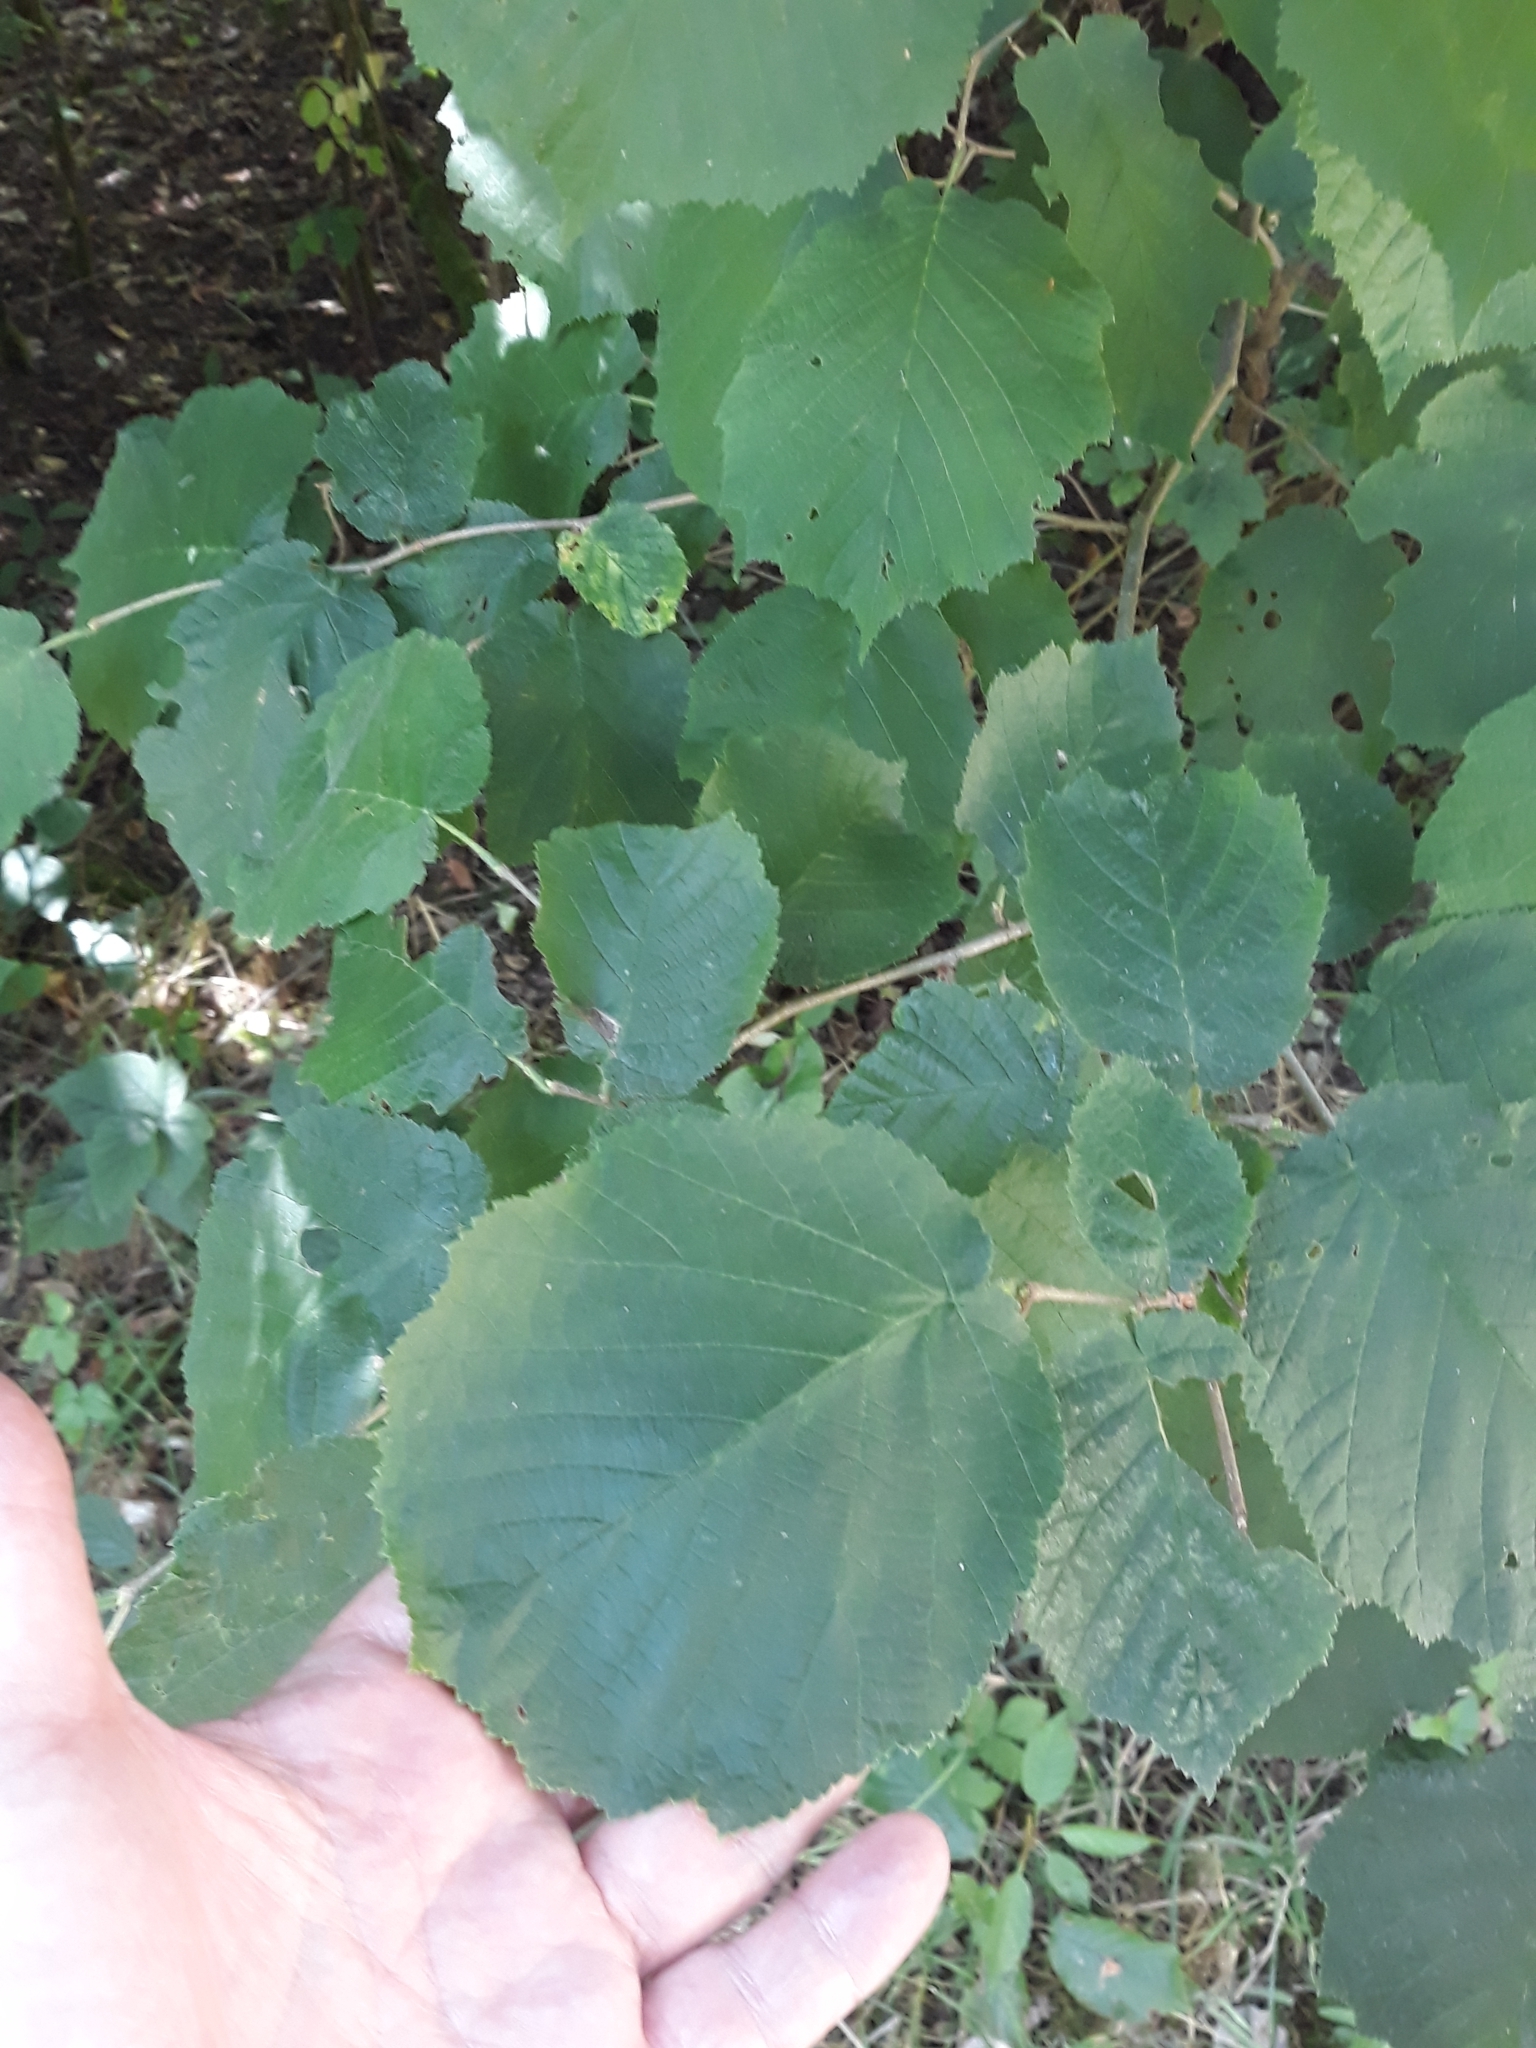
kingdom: Plantae
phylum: Tracheophyta
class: Magnoliopsida
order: Fagales
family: Betulaceae
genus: Corylus
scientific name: Corylus avellana
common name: European hazel
